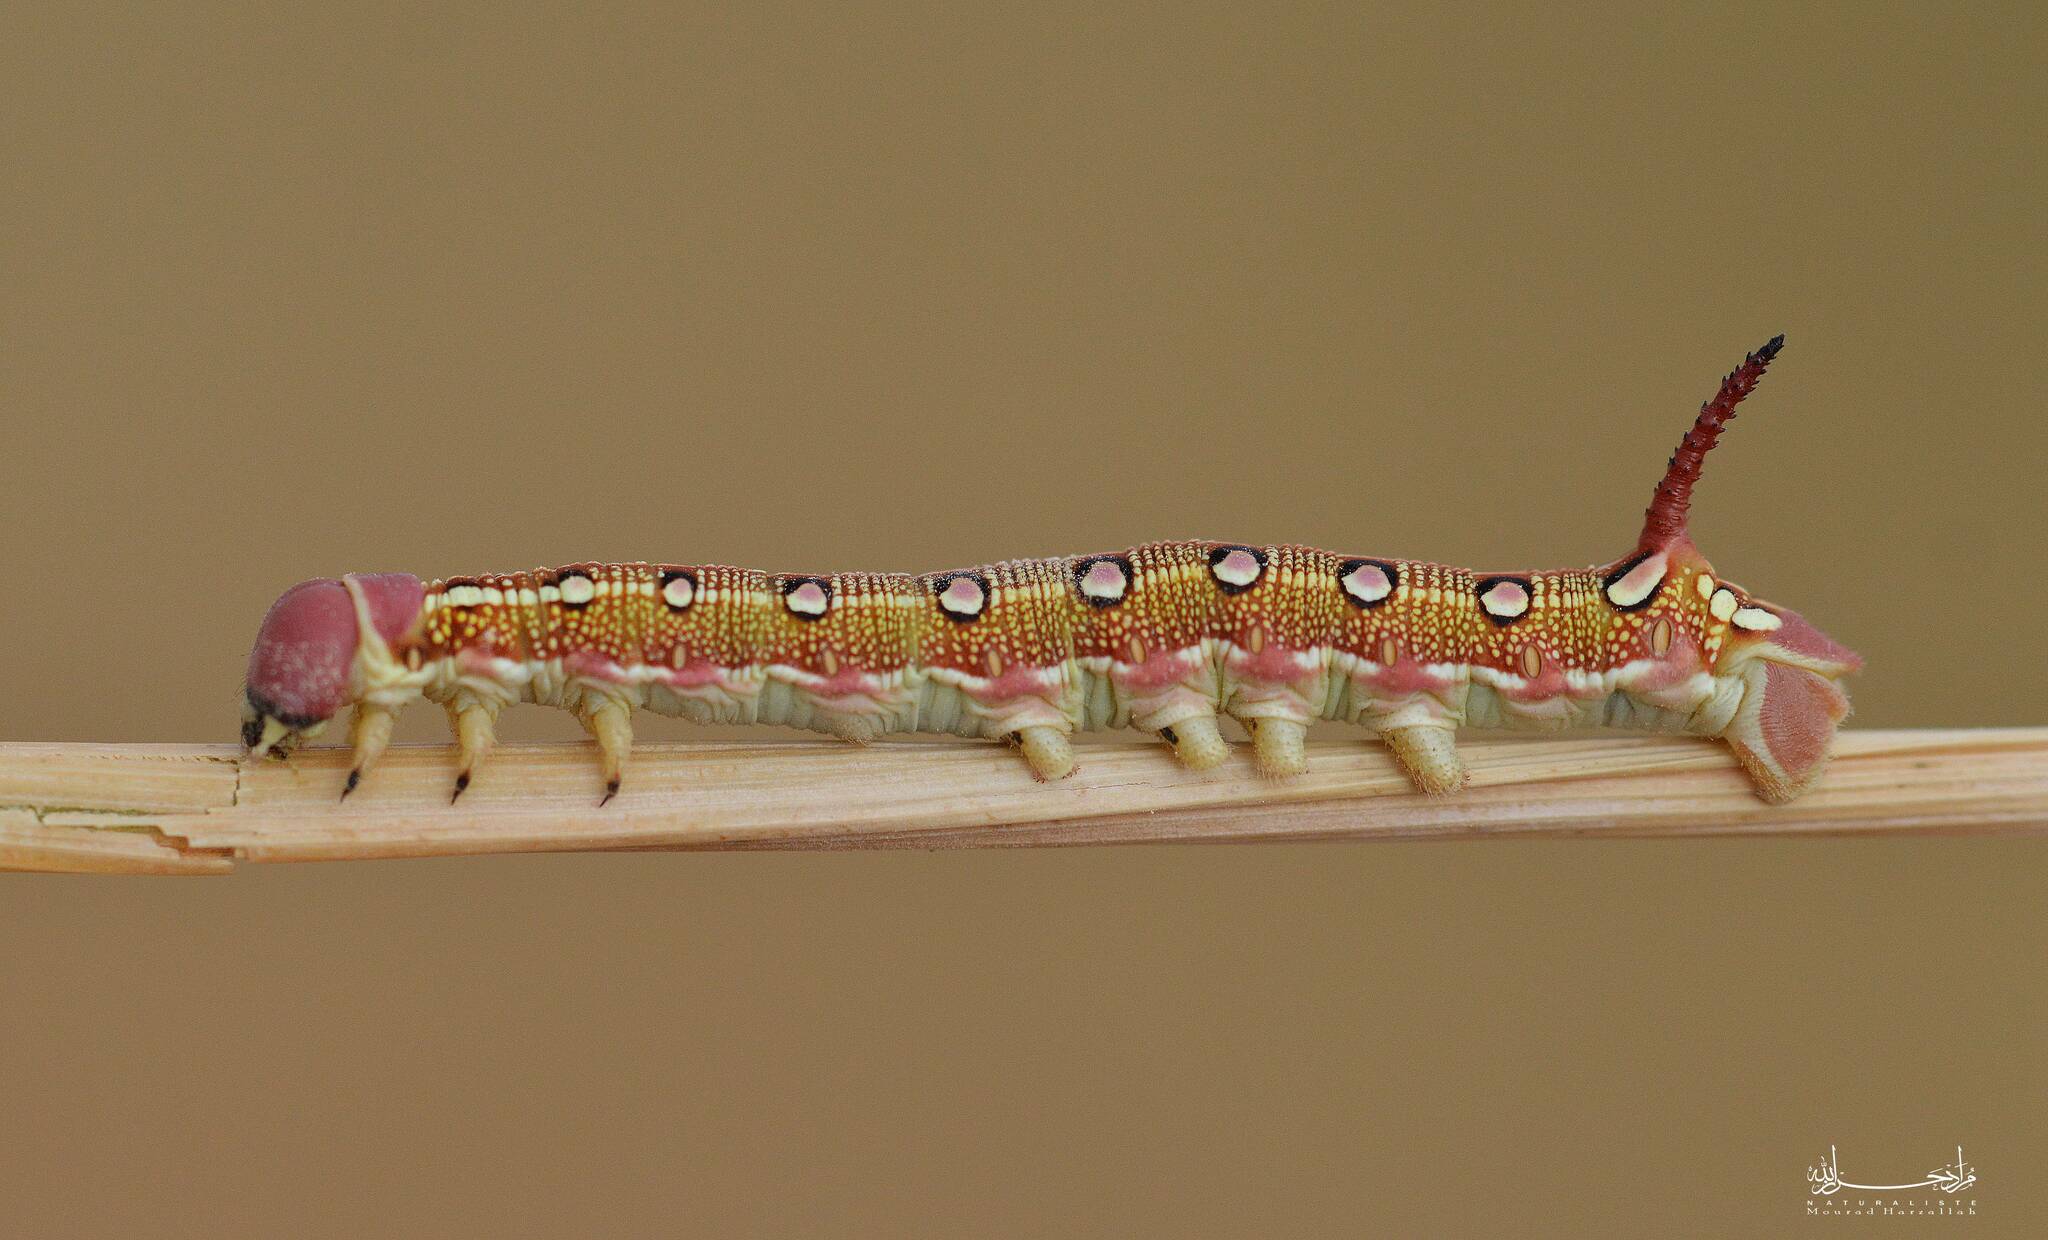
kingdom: Animalia
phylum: Arthropoda
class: Insecta
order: Lepidoptera
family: Sphingidae
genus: Hyles
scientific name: Hyles livornica
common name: Striped hawk-moth
